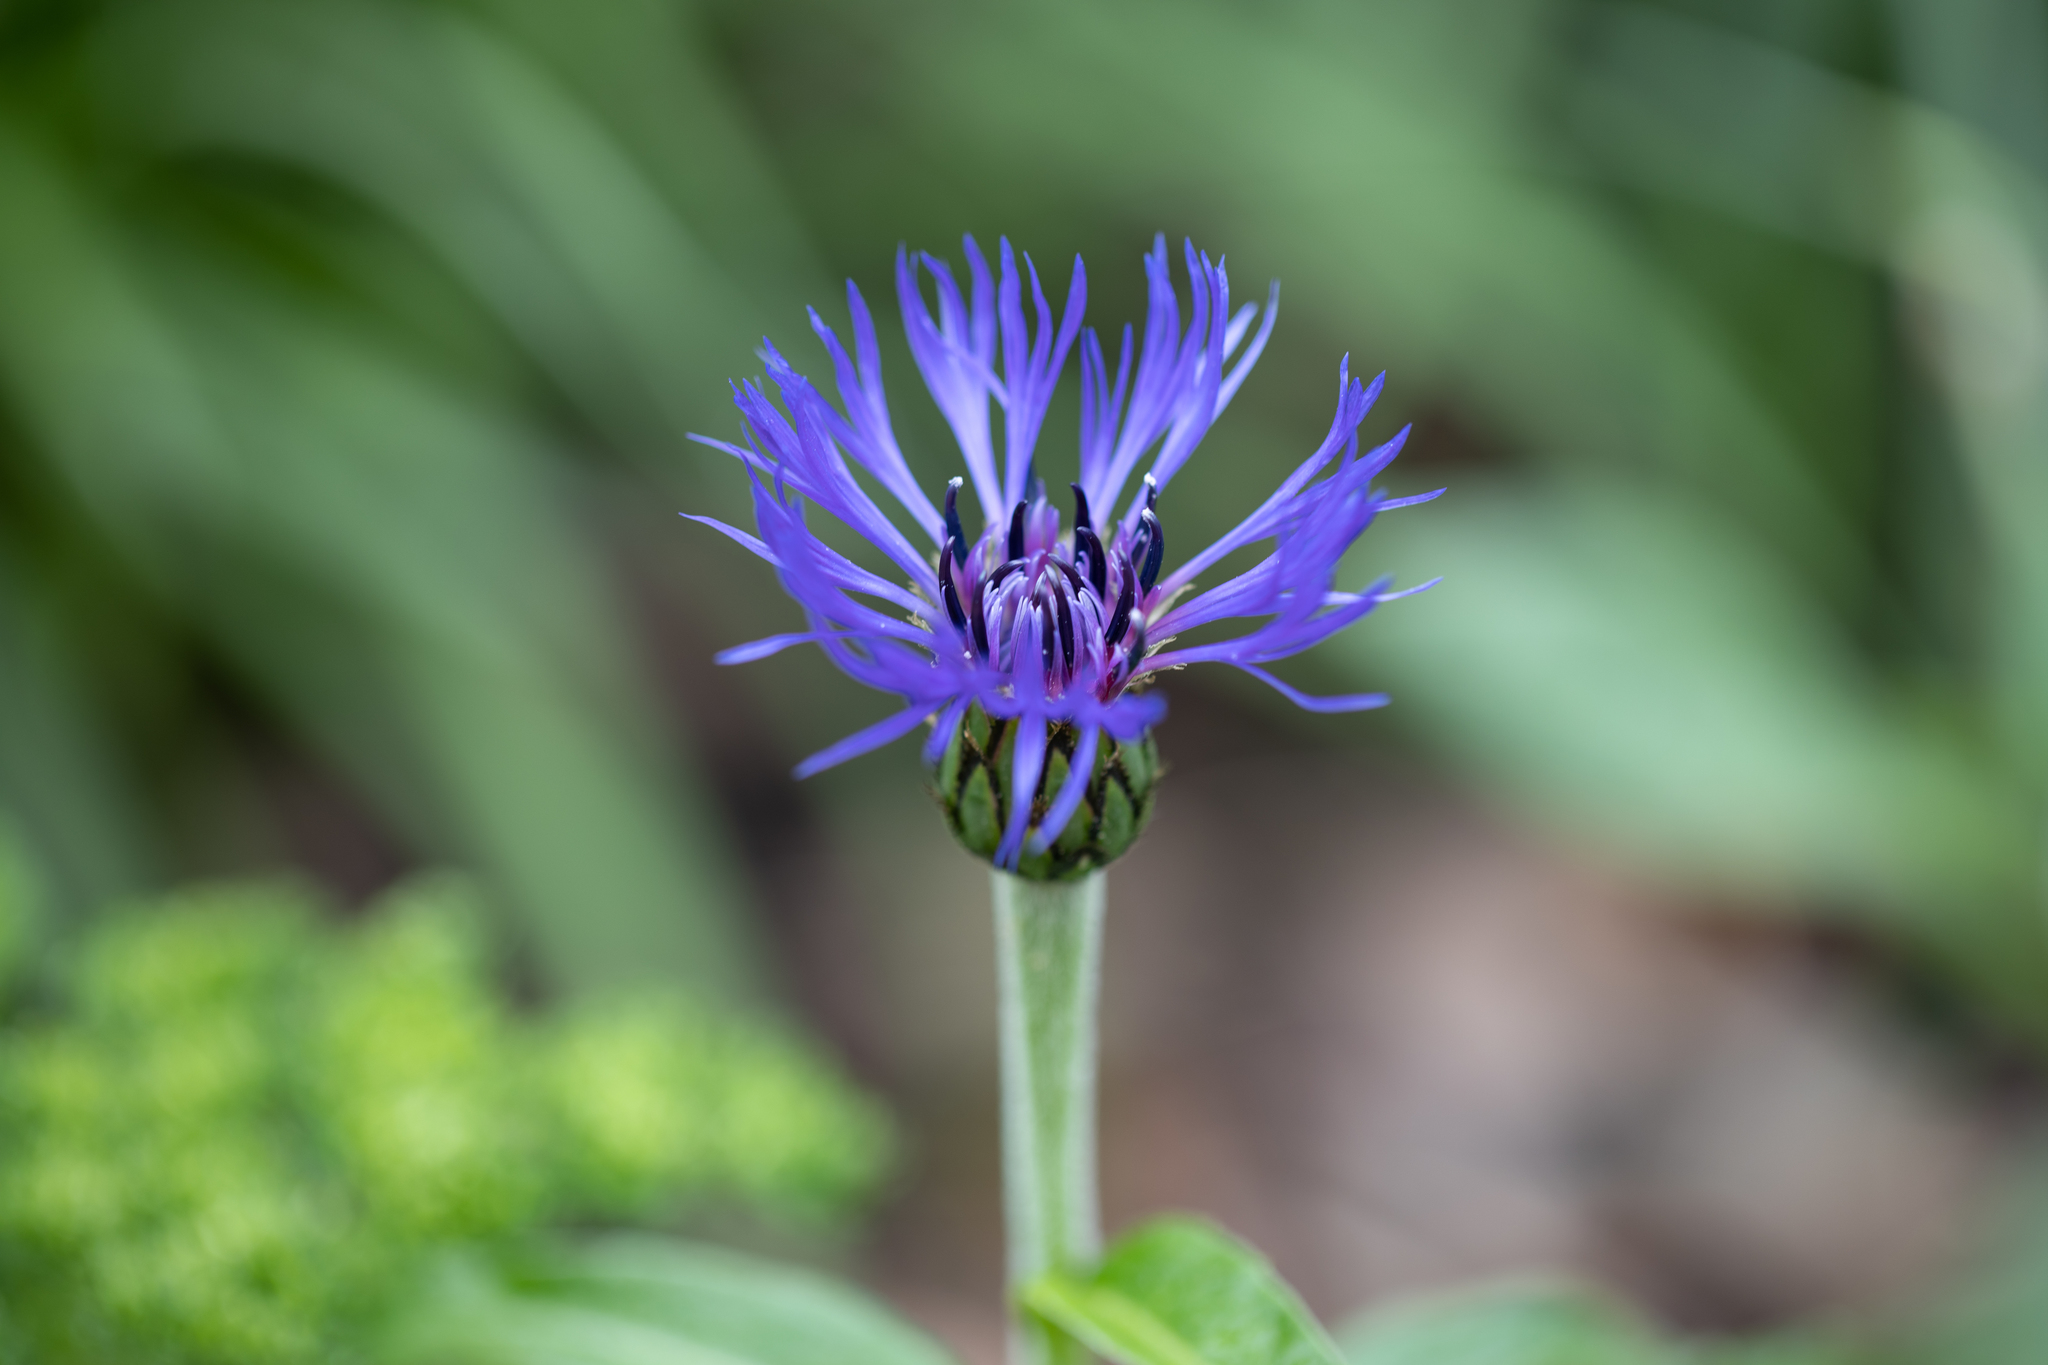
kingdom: Plantae
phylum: Tracheophyta
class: Magnoliopsida
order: Asterales
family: Asteraceae
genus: Centaurea
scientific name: Centaurea cyanus
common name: Cornflower
